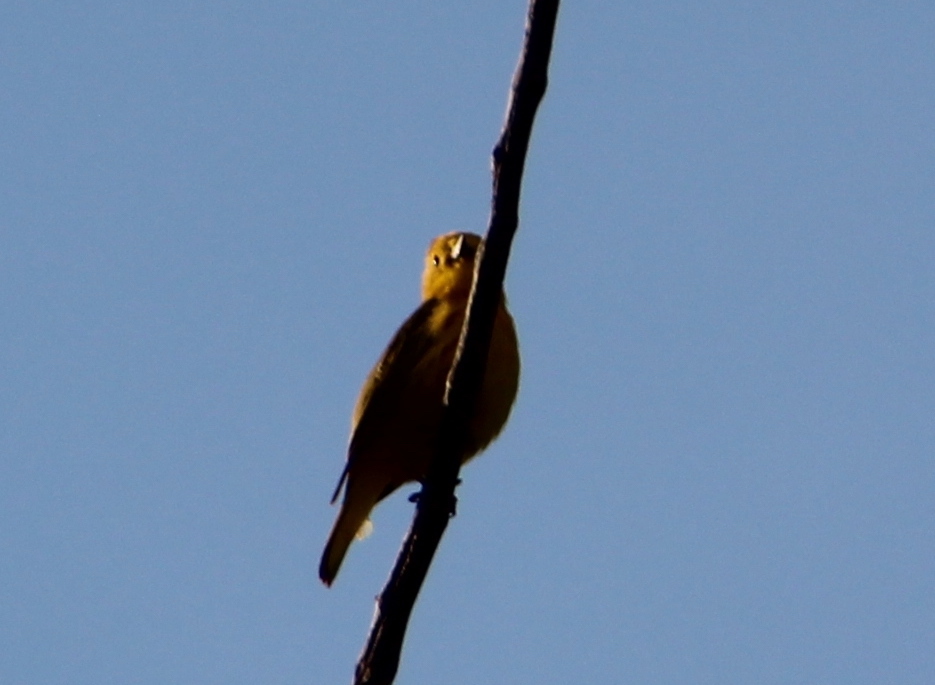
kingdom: Animalia
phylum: Chordata
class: Aves
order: Passeriformes
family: Parulidae
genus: Setophaga
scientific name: Setophaga petechia
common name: Yellow warbler
